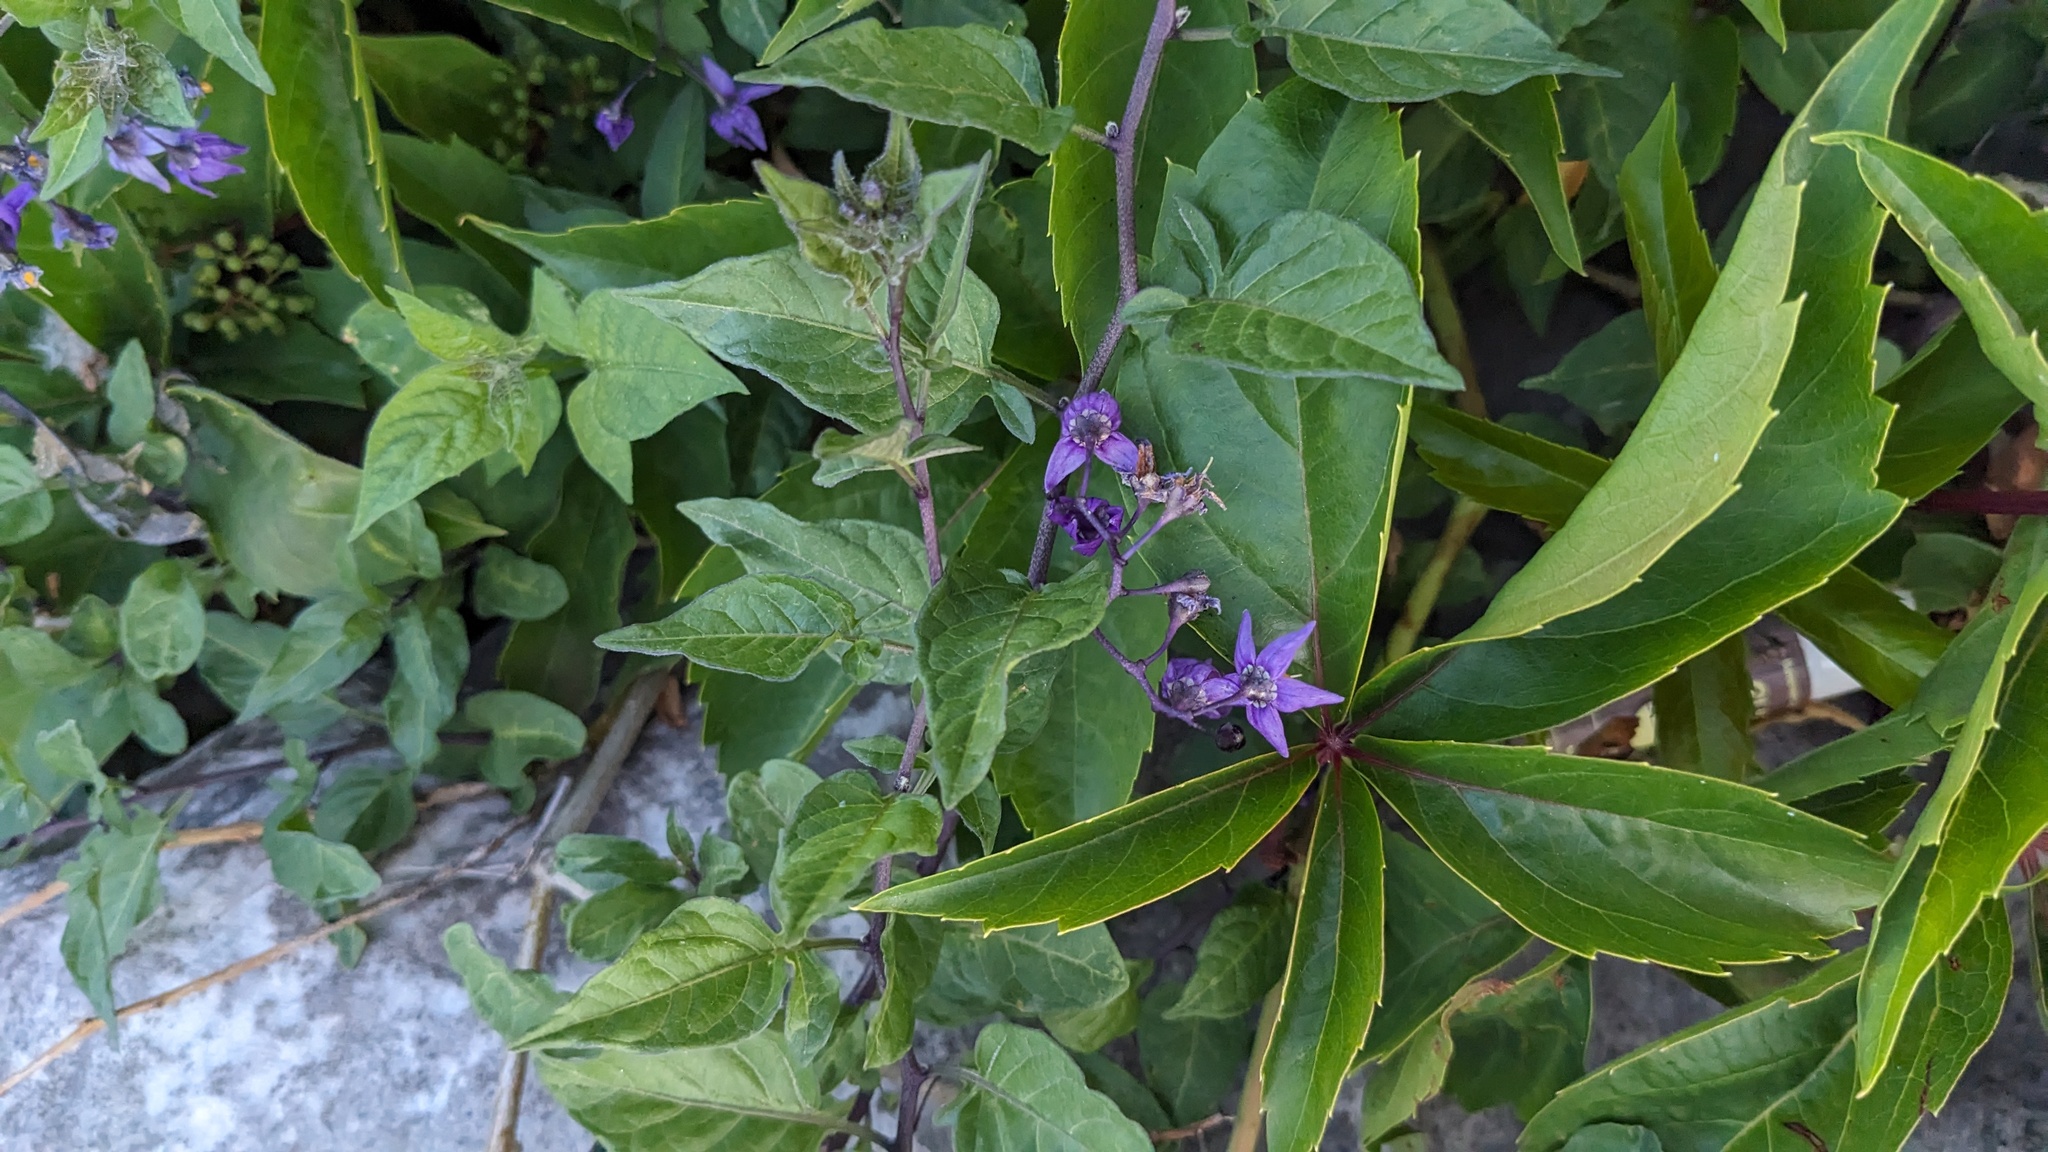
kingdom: Plantae
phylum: Tracheophyta
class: Magnoliopsida
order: Solanales
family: Solanaceae
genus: Solanum
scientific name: Solanum dulcamara
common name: Climbing nightshade
